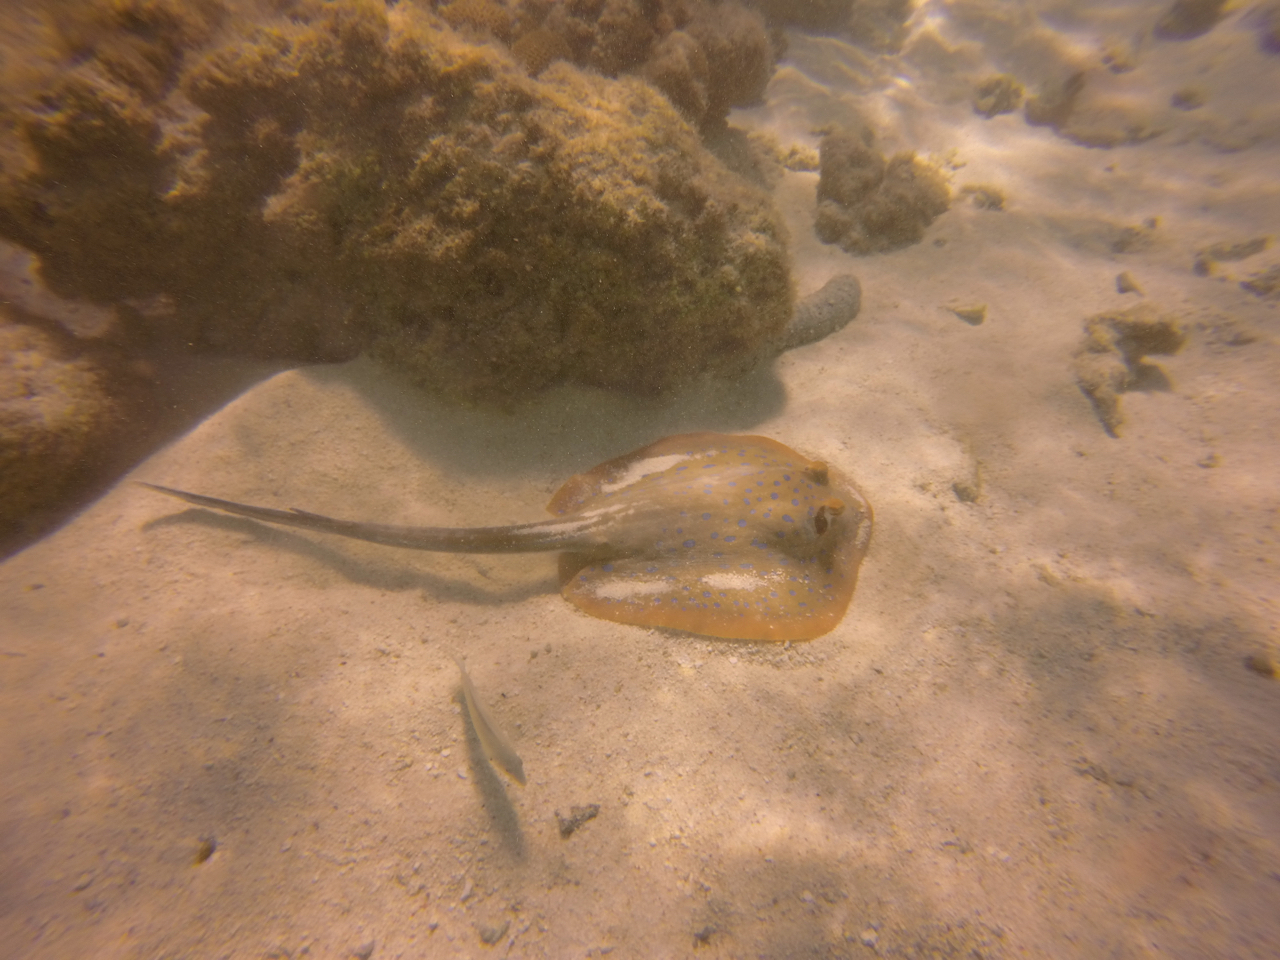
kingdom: Animalia
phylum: Chordata
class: Elasmobranchii
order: Myliobatiformes
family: Dasyatidae
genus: Taeniura
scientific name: Taeniura lymma
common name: Bluespotted ribbontail ray
